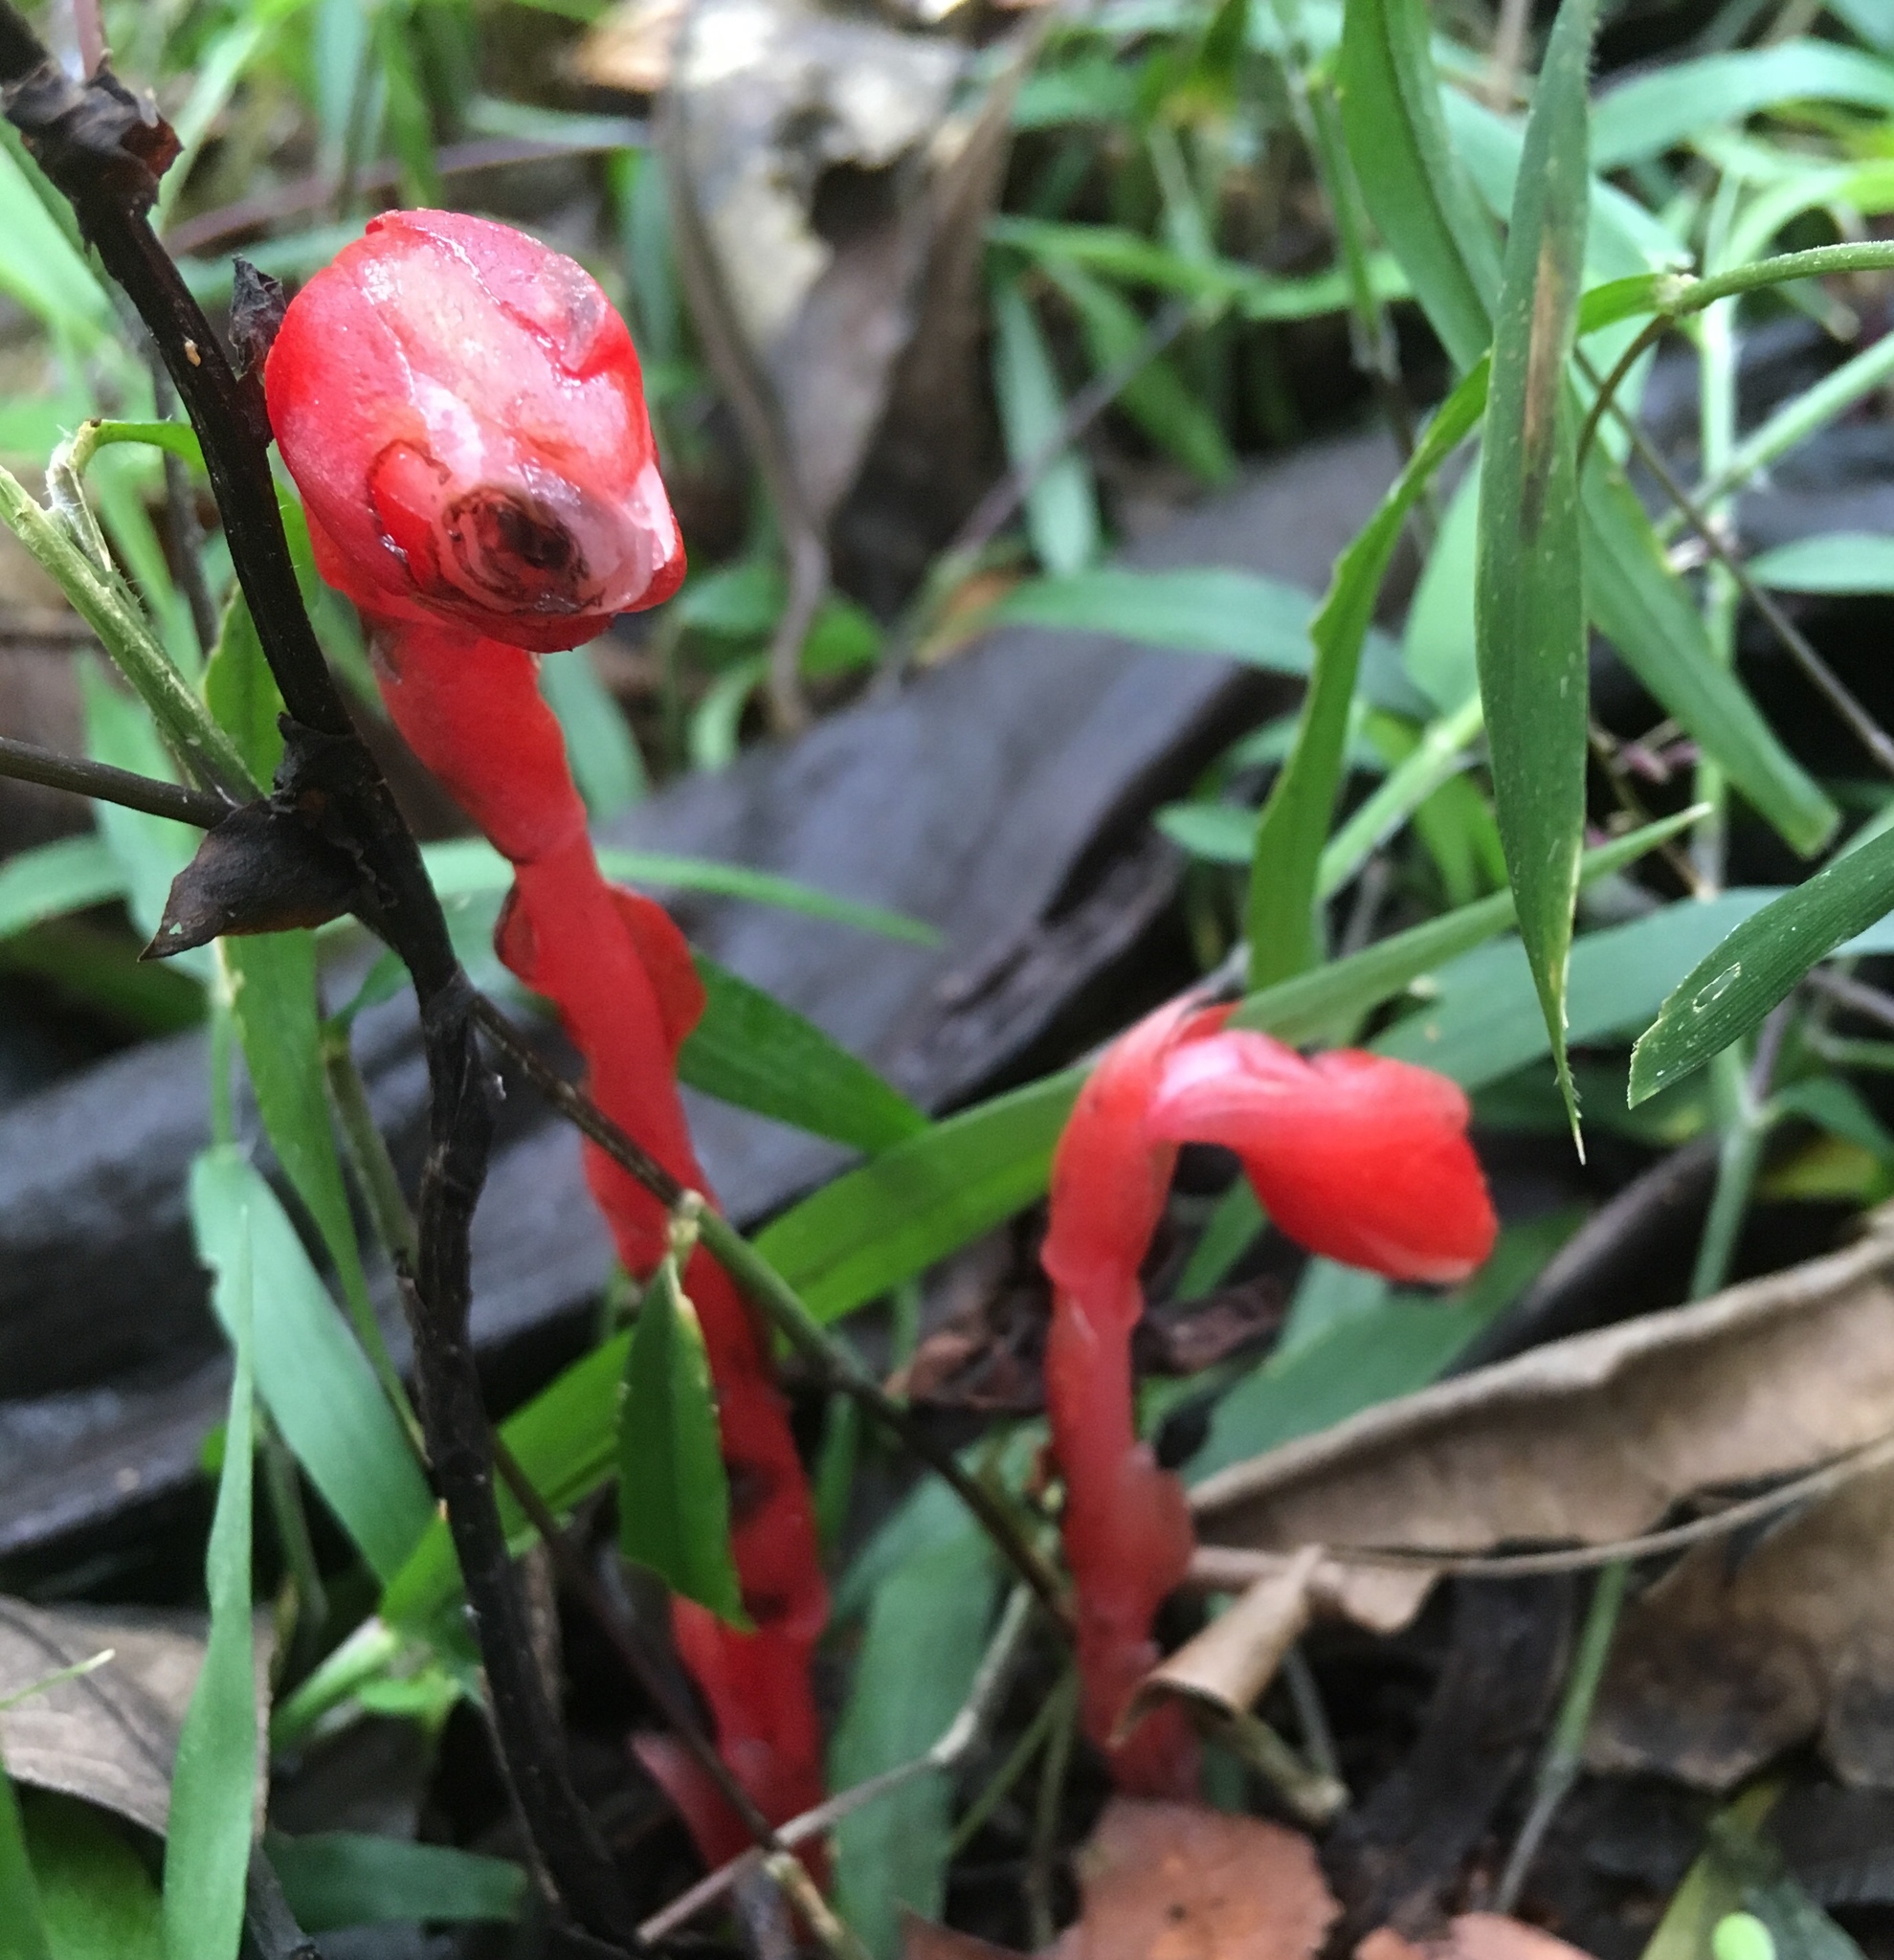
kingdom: Plantae
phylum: Tracheophyta
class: Magnoliopsida
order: Ericales
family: Ericaceae
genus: Monotropa
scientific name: Monotropa coccinea
